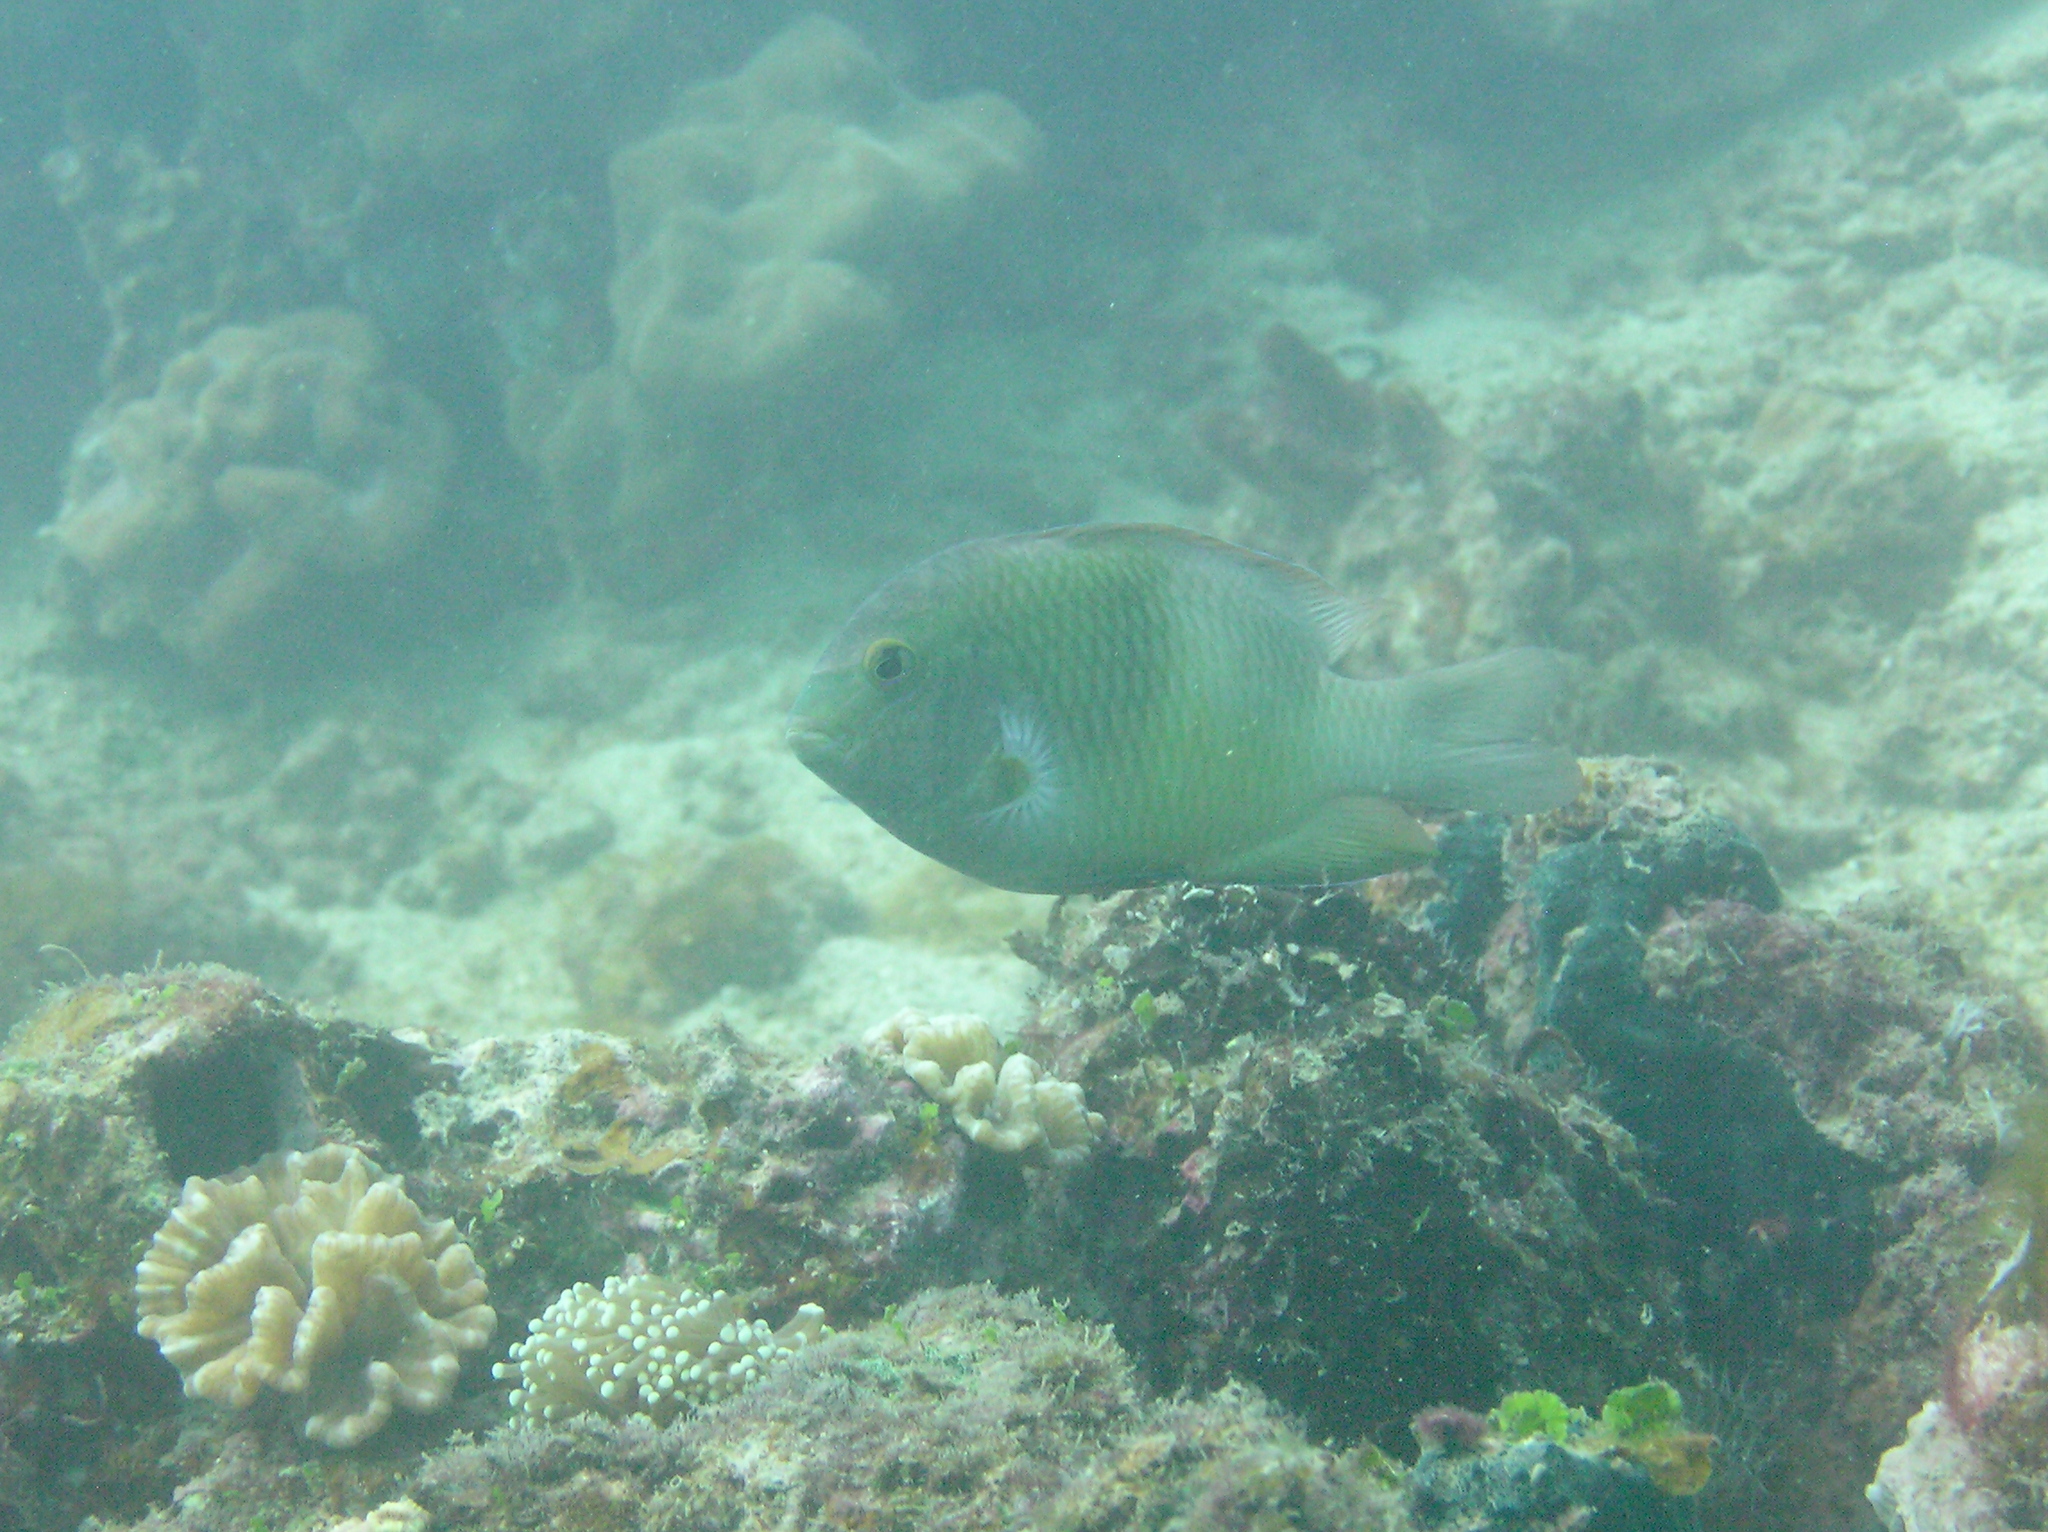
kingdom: Animalia
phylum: Chordata
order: Perciformes
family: Pomacentridae
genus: Dischistodus
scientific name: Dischistodus prosopotaenia
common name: Honey-head damsel
